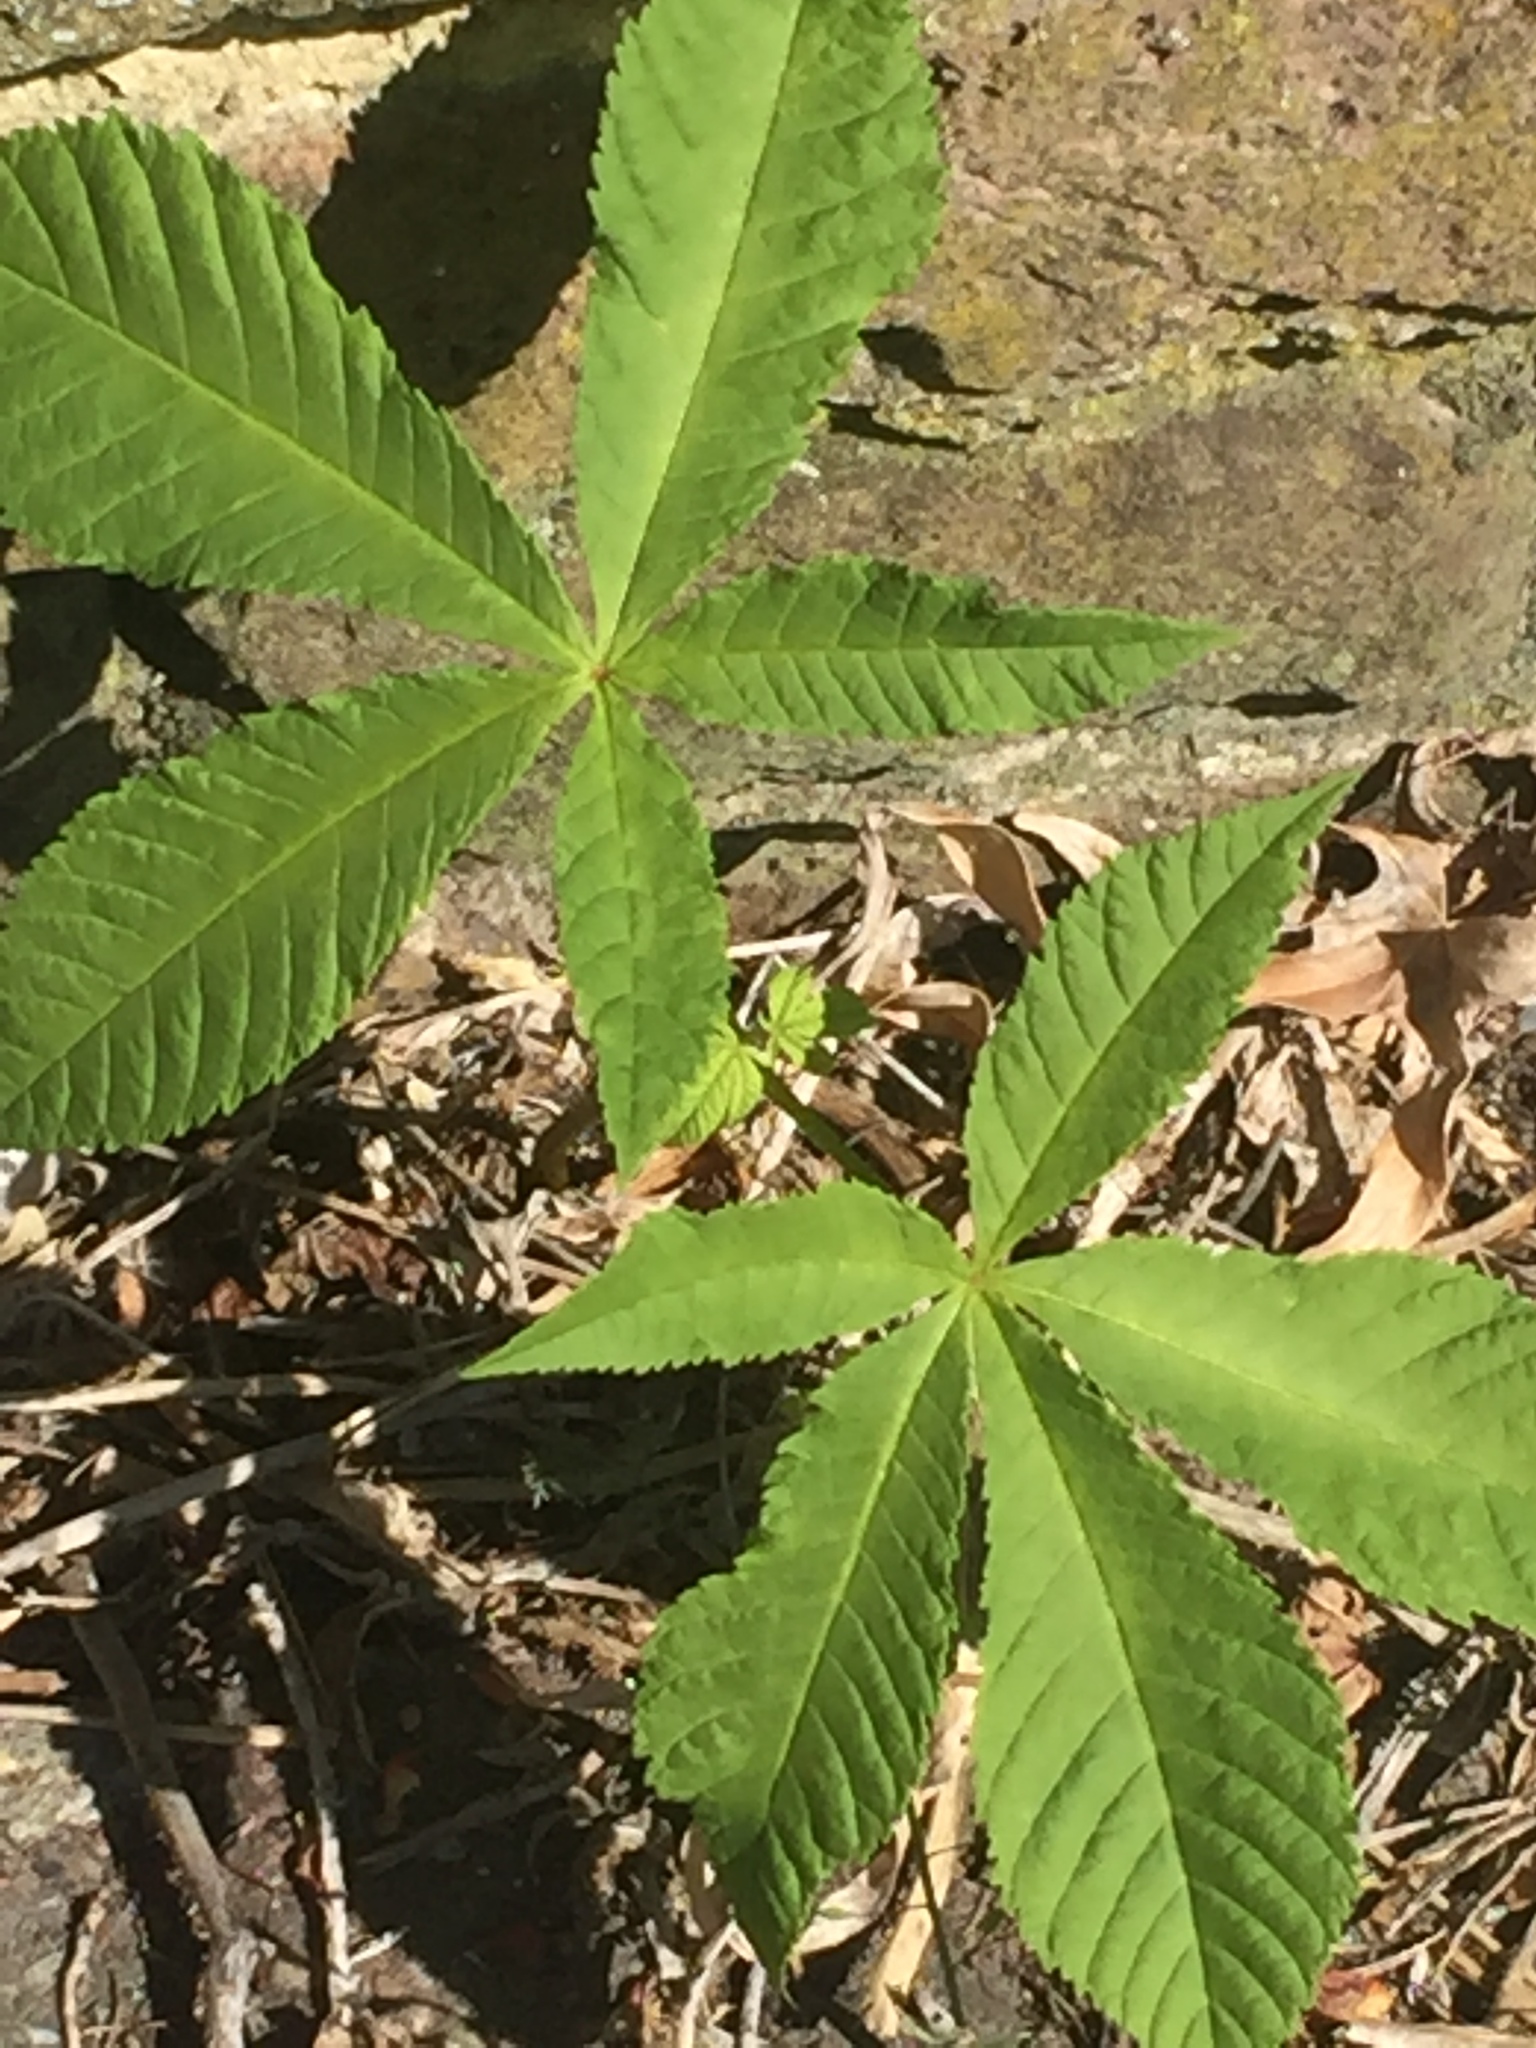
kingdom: Plantae
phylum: Tracheophyta
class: Magnoliopsida
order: Sapindales
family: Sapindaceae
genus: Aesculus
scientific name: Aesculus hippocastanum
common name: Horse-chestnut
